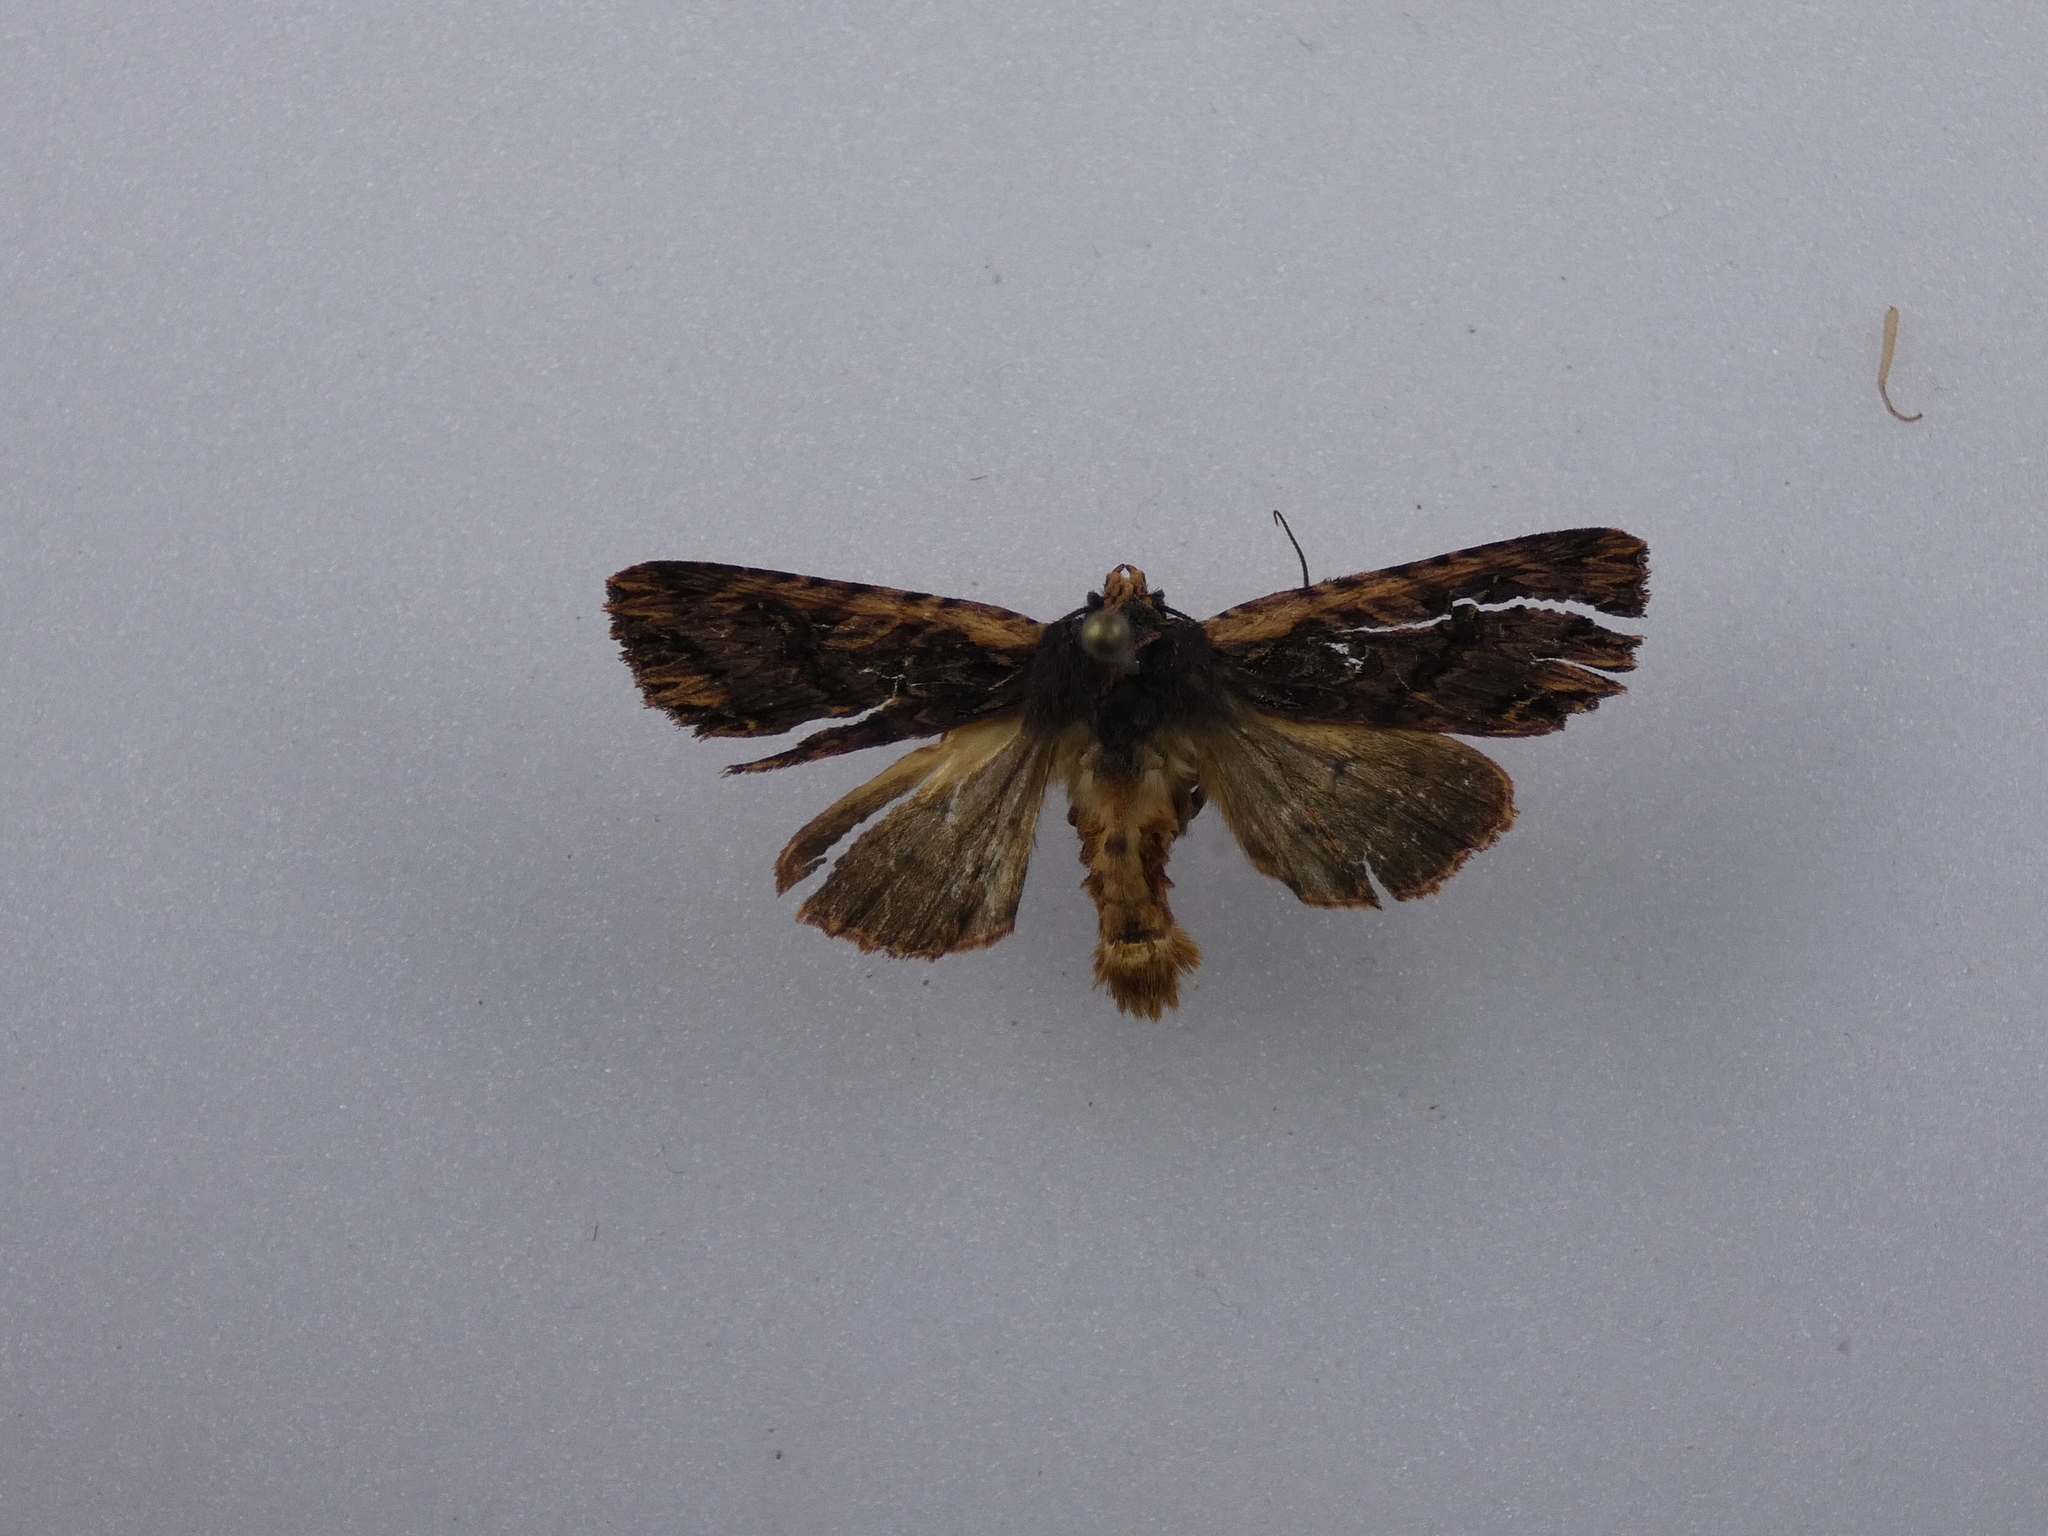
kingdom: Animalia
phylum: Arthropoda
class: Insecta
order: Lepidoptera
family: Noctuidae
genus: Meterana
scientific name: Meterana alcyone
